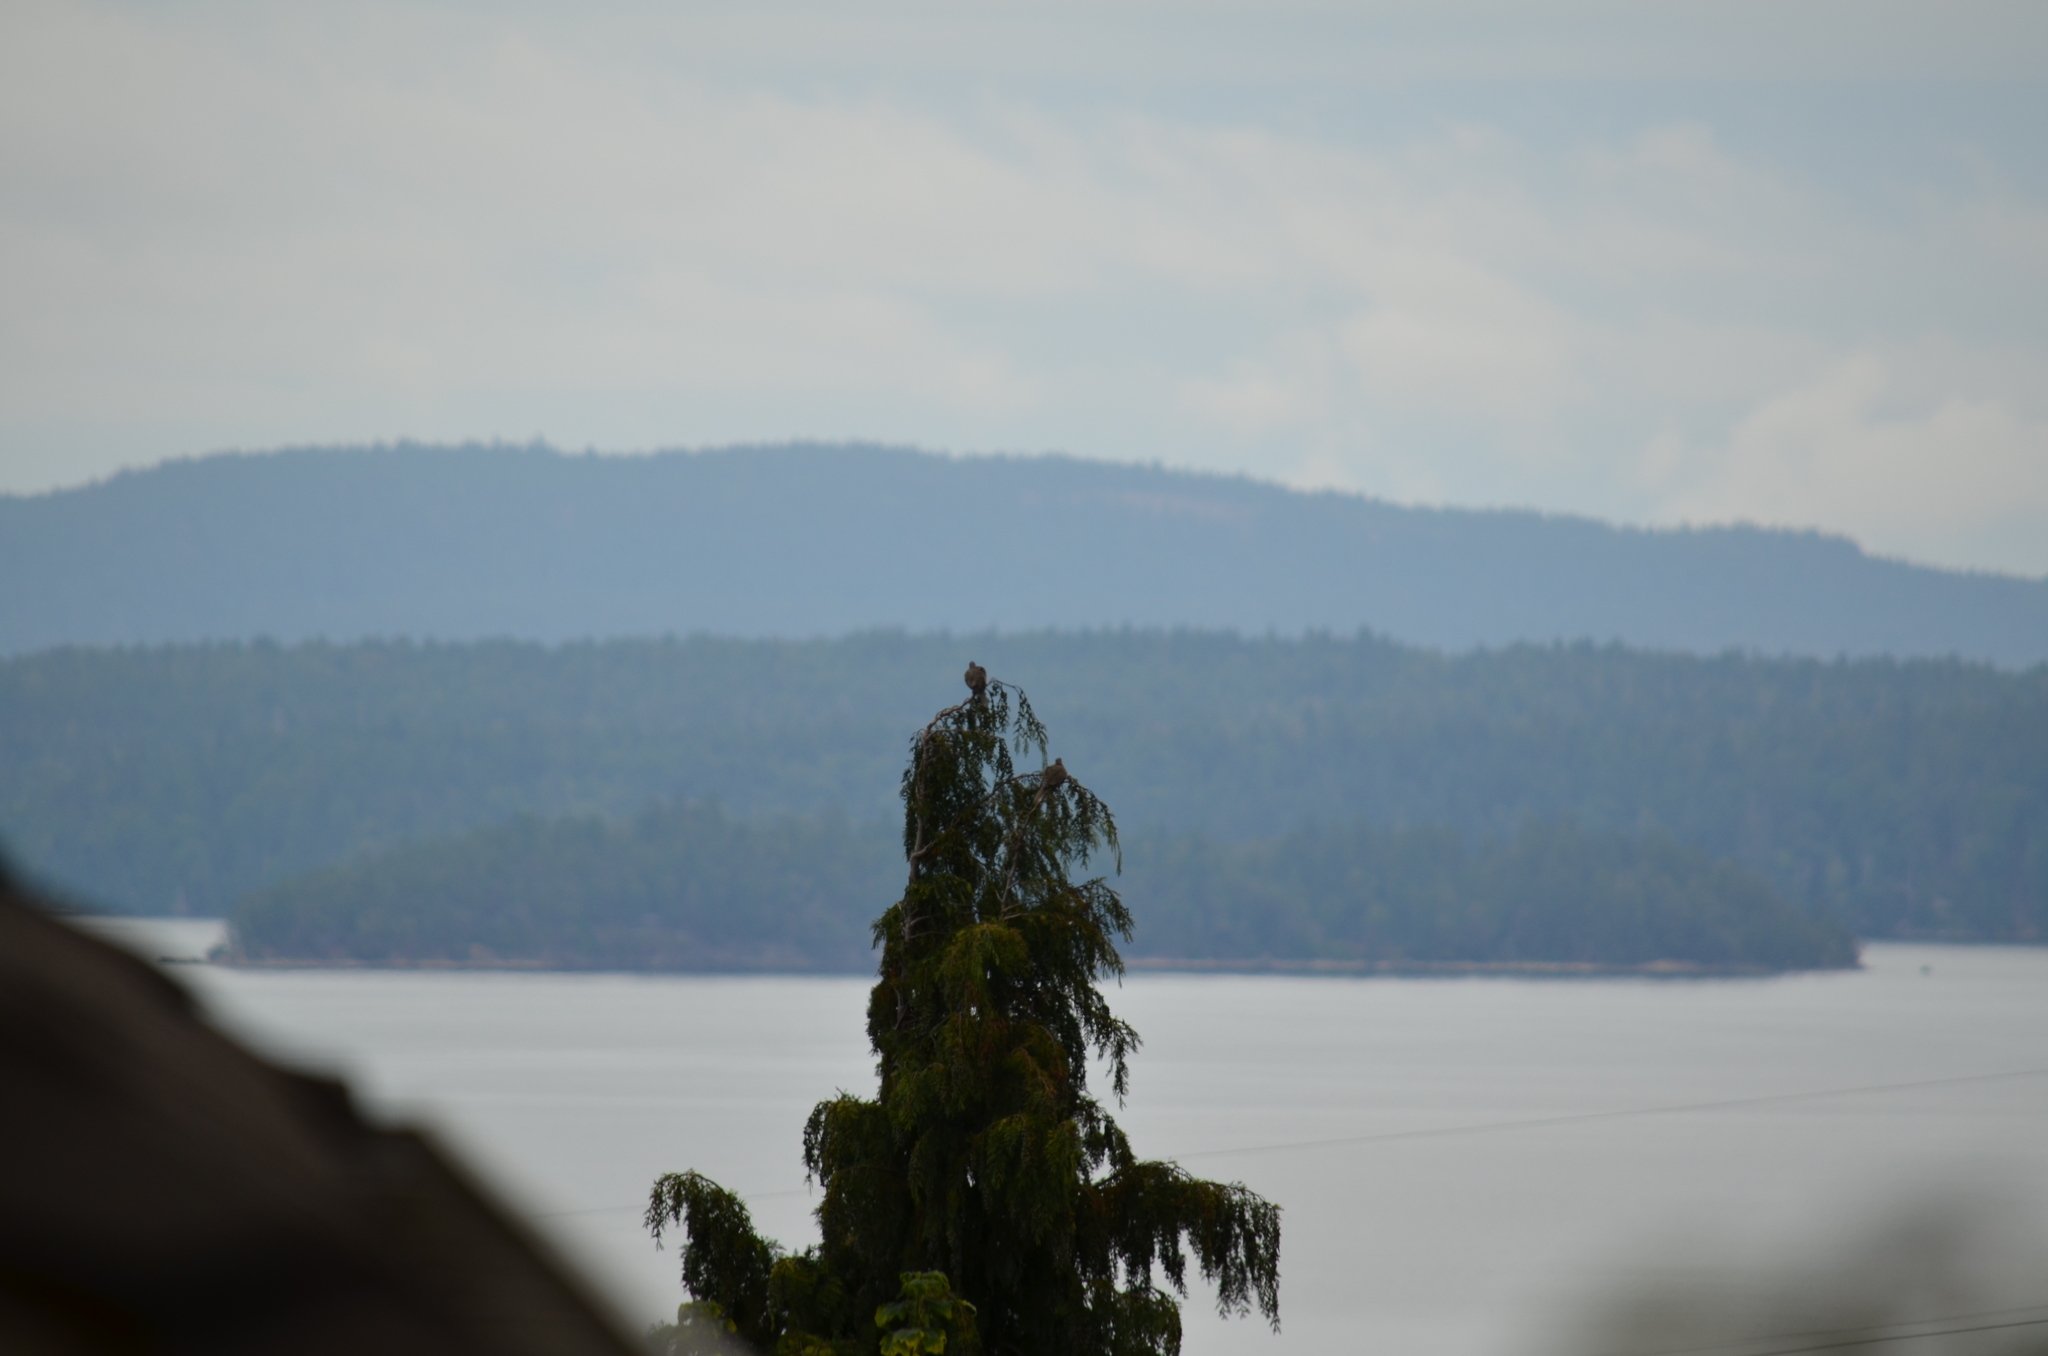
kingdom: Animalia
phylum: Chordata
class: Aves
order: Columbiformes
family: Columbidae
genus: Streptopelia
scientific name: Streptopelia decaocto
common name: Eurasian collared dove
